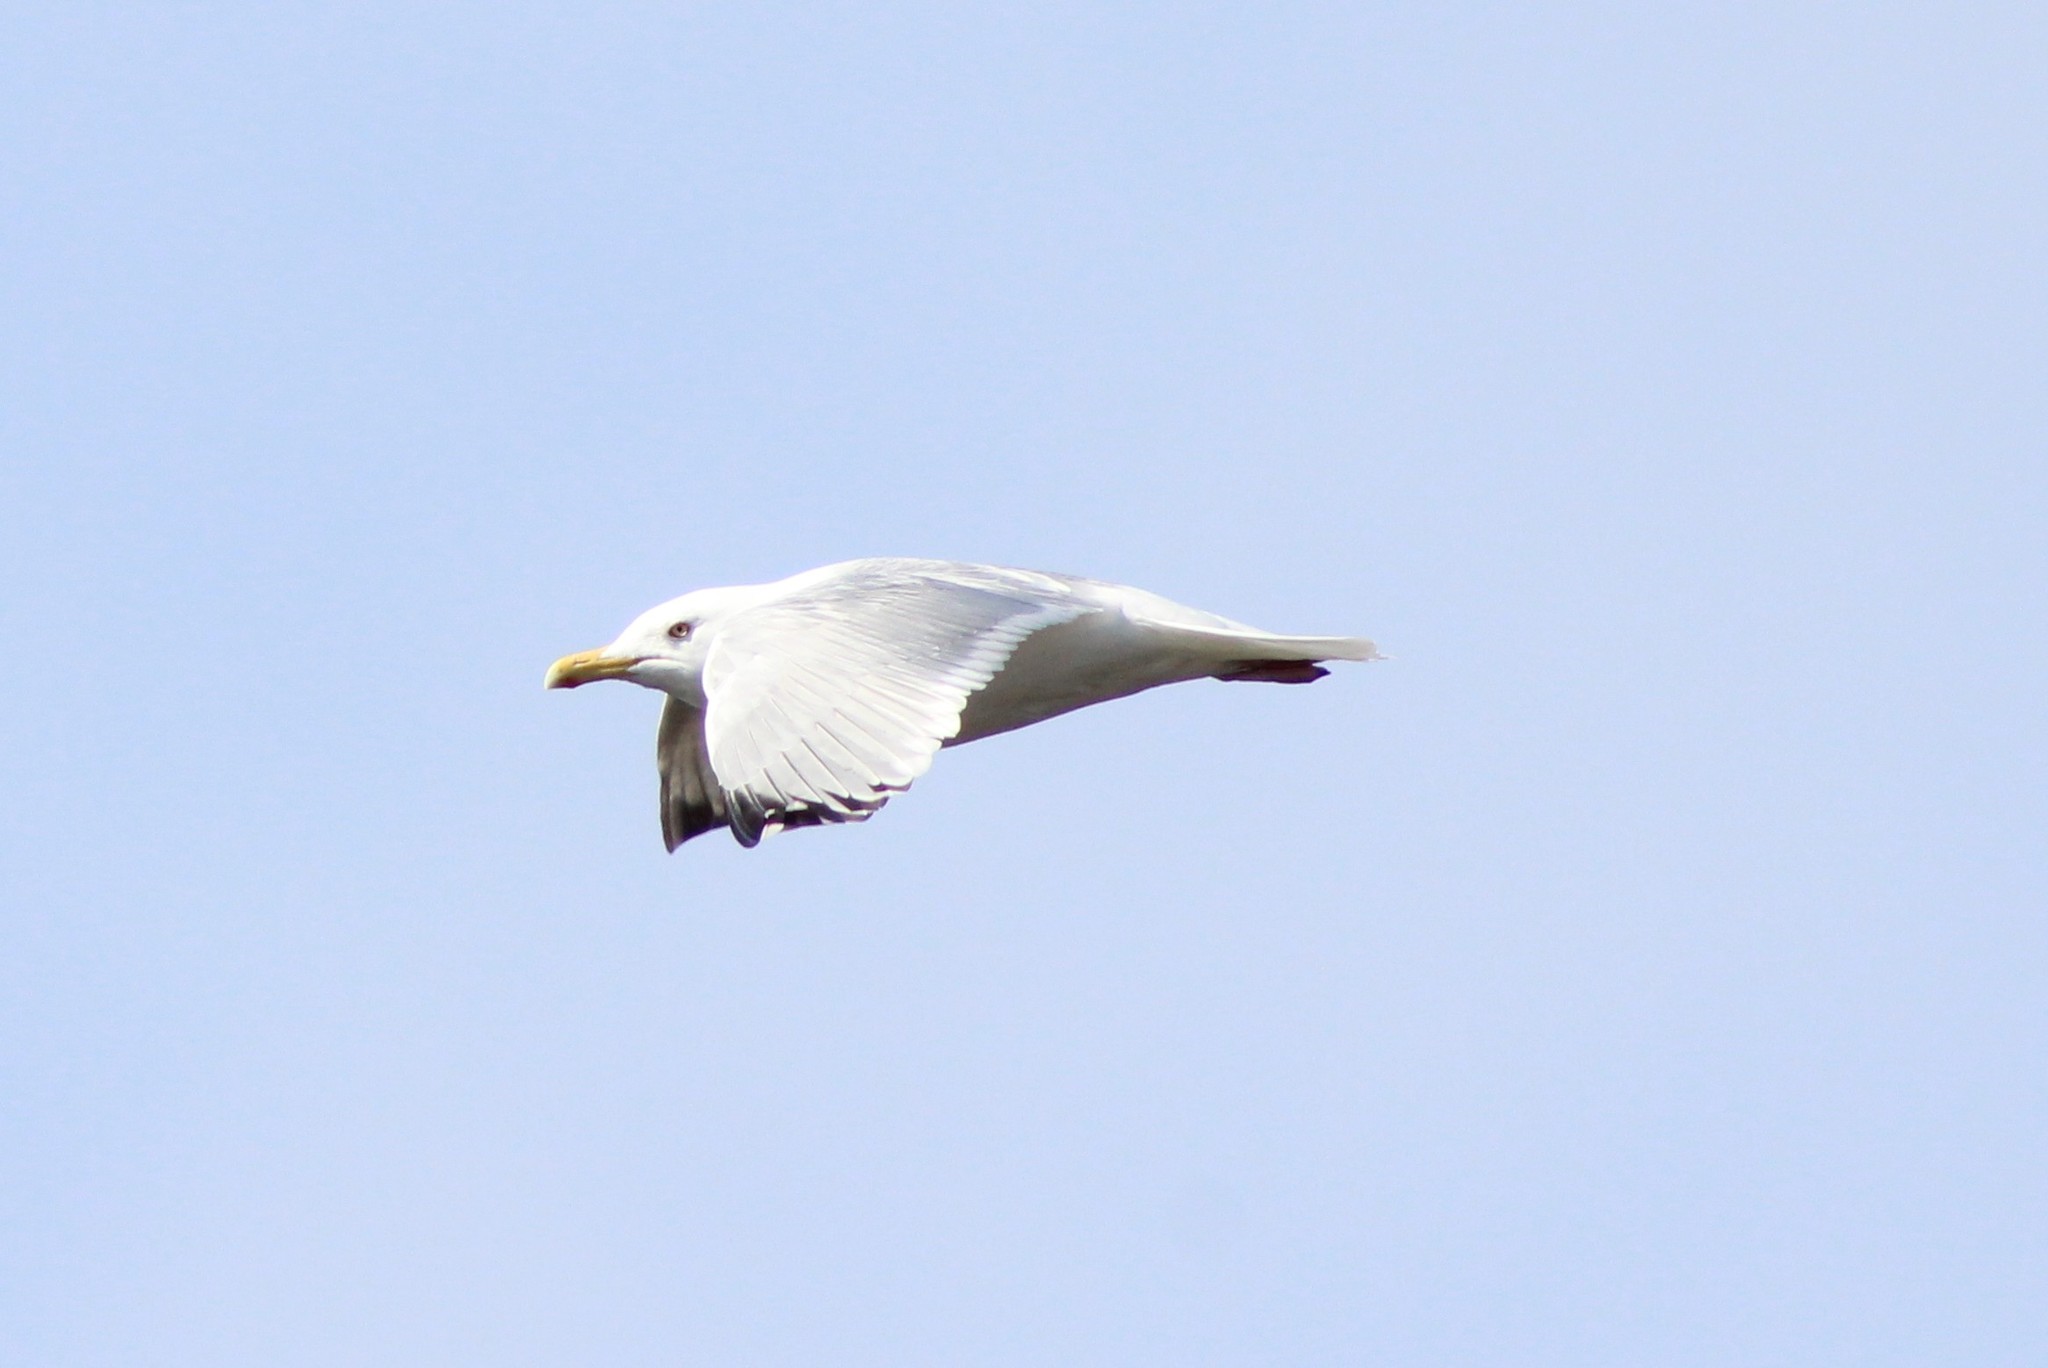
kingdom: Animalia
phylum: Chordata
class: Aves
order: Charadriiformes
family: Laridae
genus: Larus
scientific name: Larus smithsonianus
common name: American herring gull
